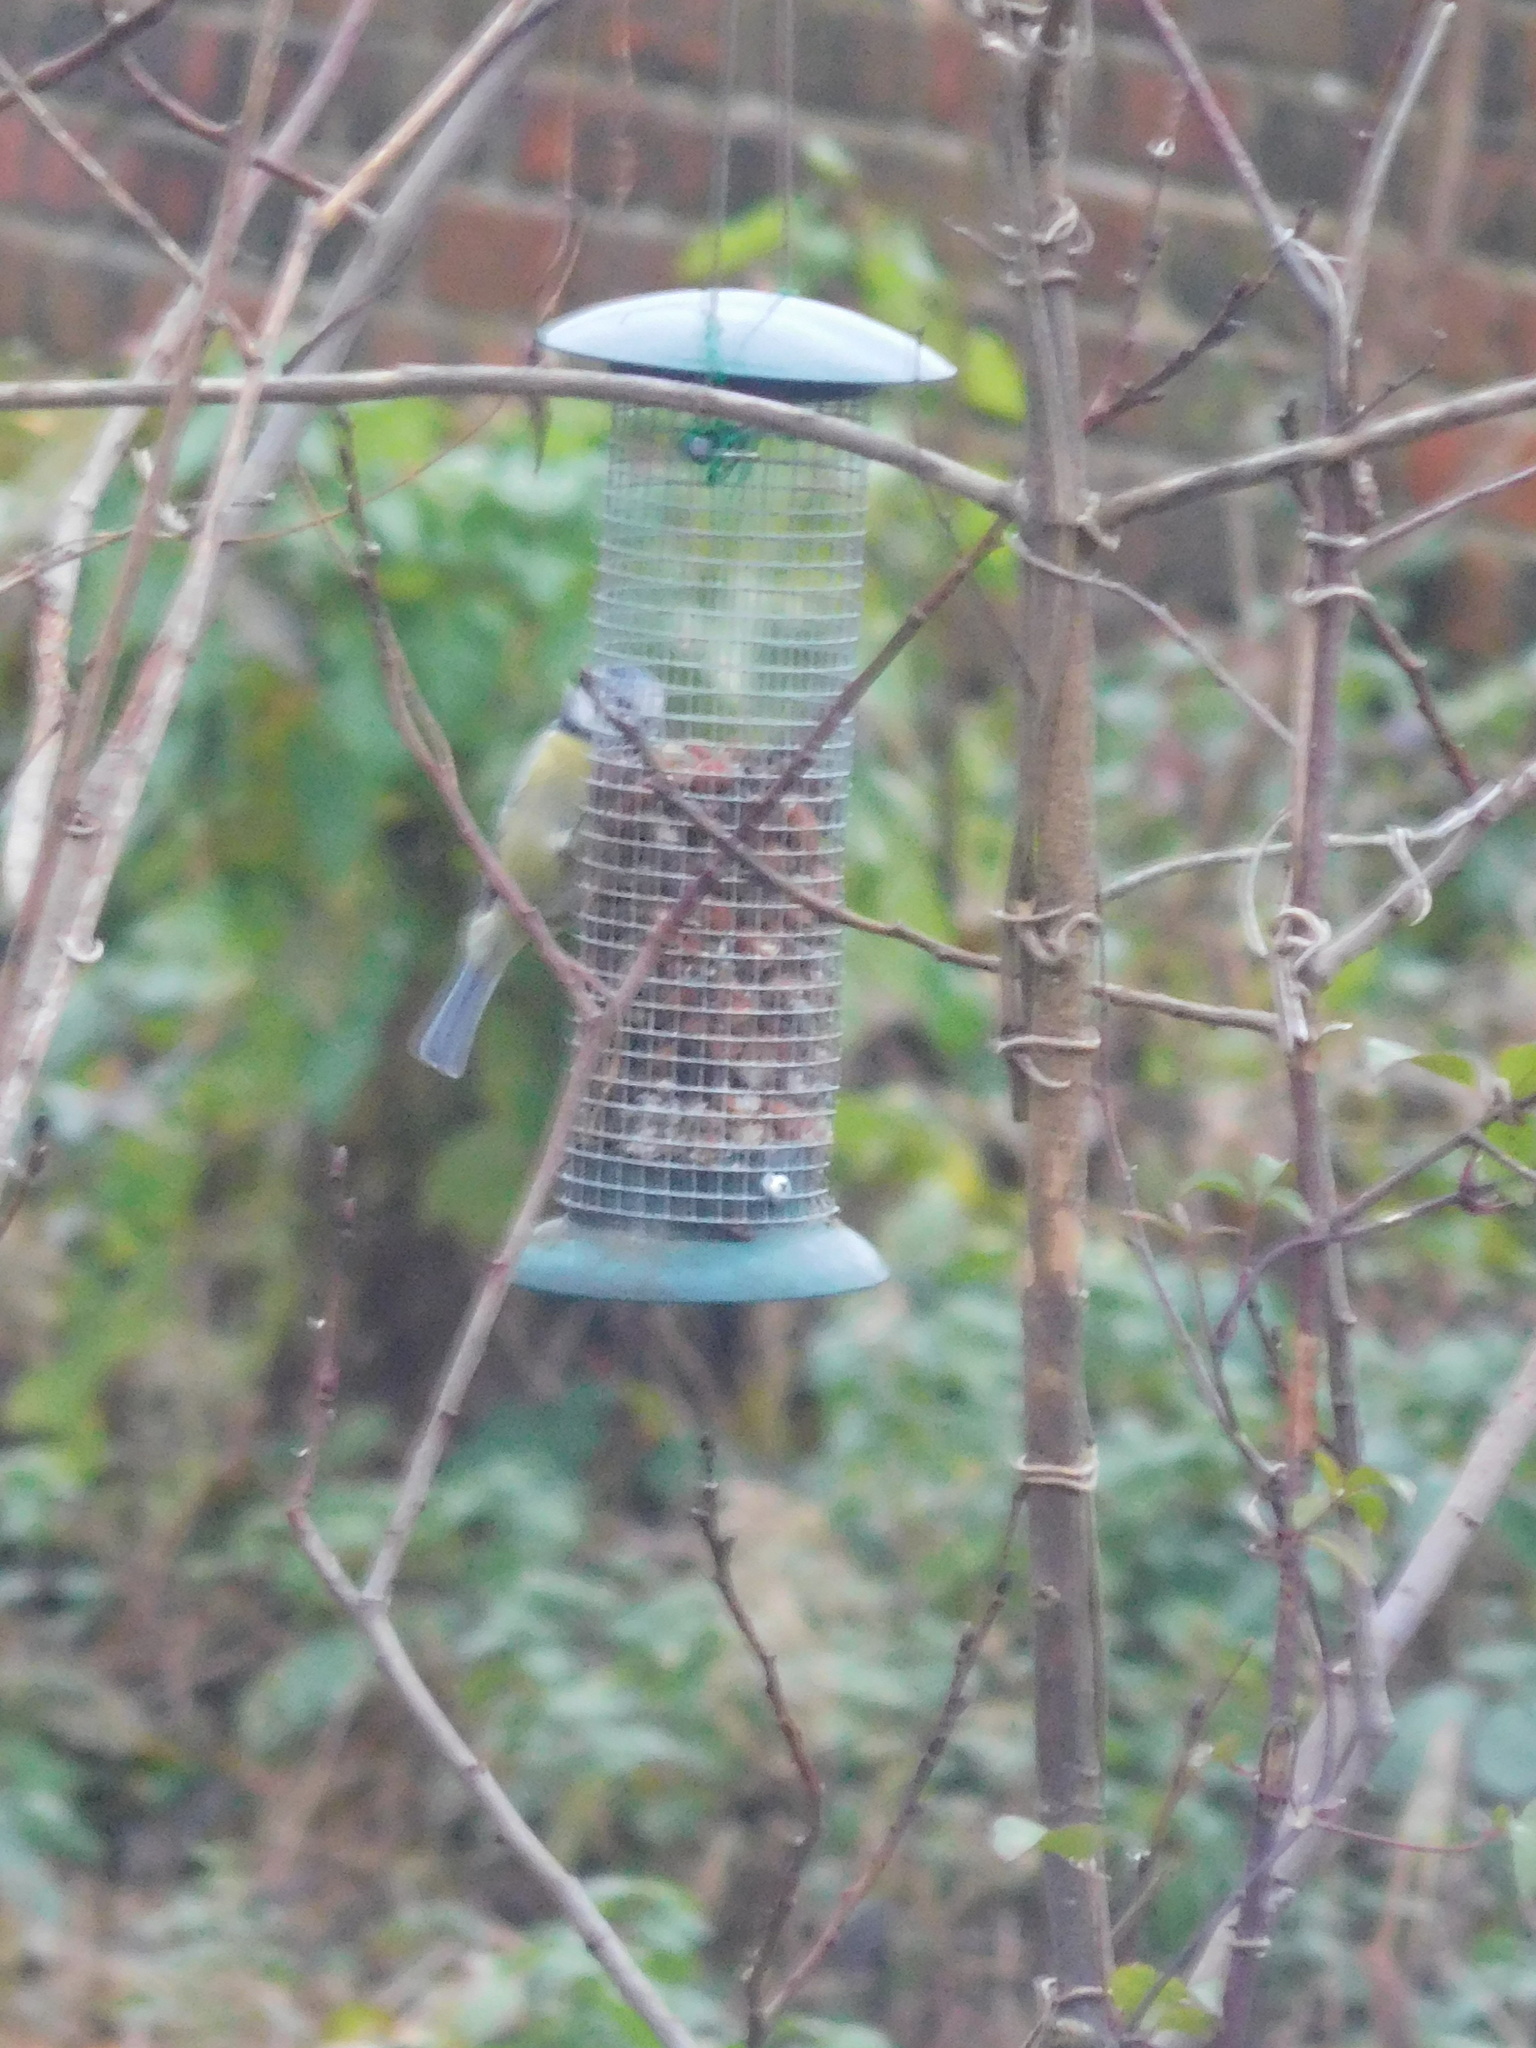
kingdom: Animalia
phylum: Chordata
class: Aves
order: Passeriformes
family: Paridae
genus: Cyanistes
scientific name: Cyanistes caeruleus
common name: Eurasian blue tit
